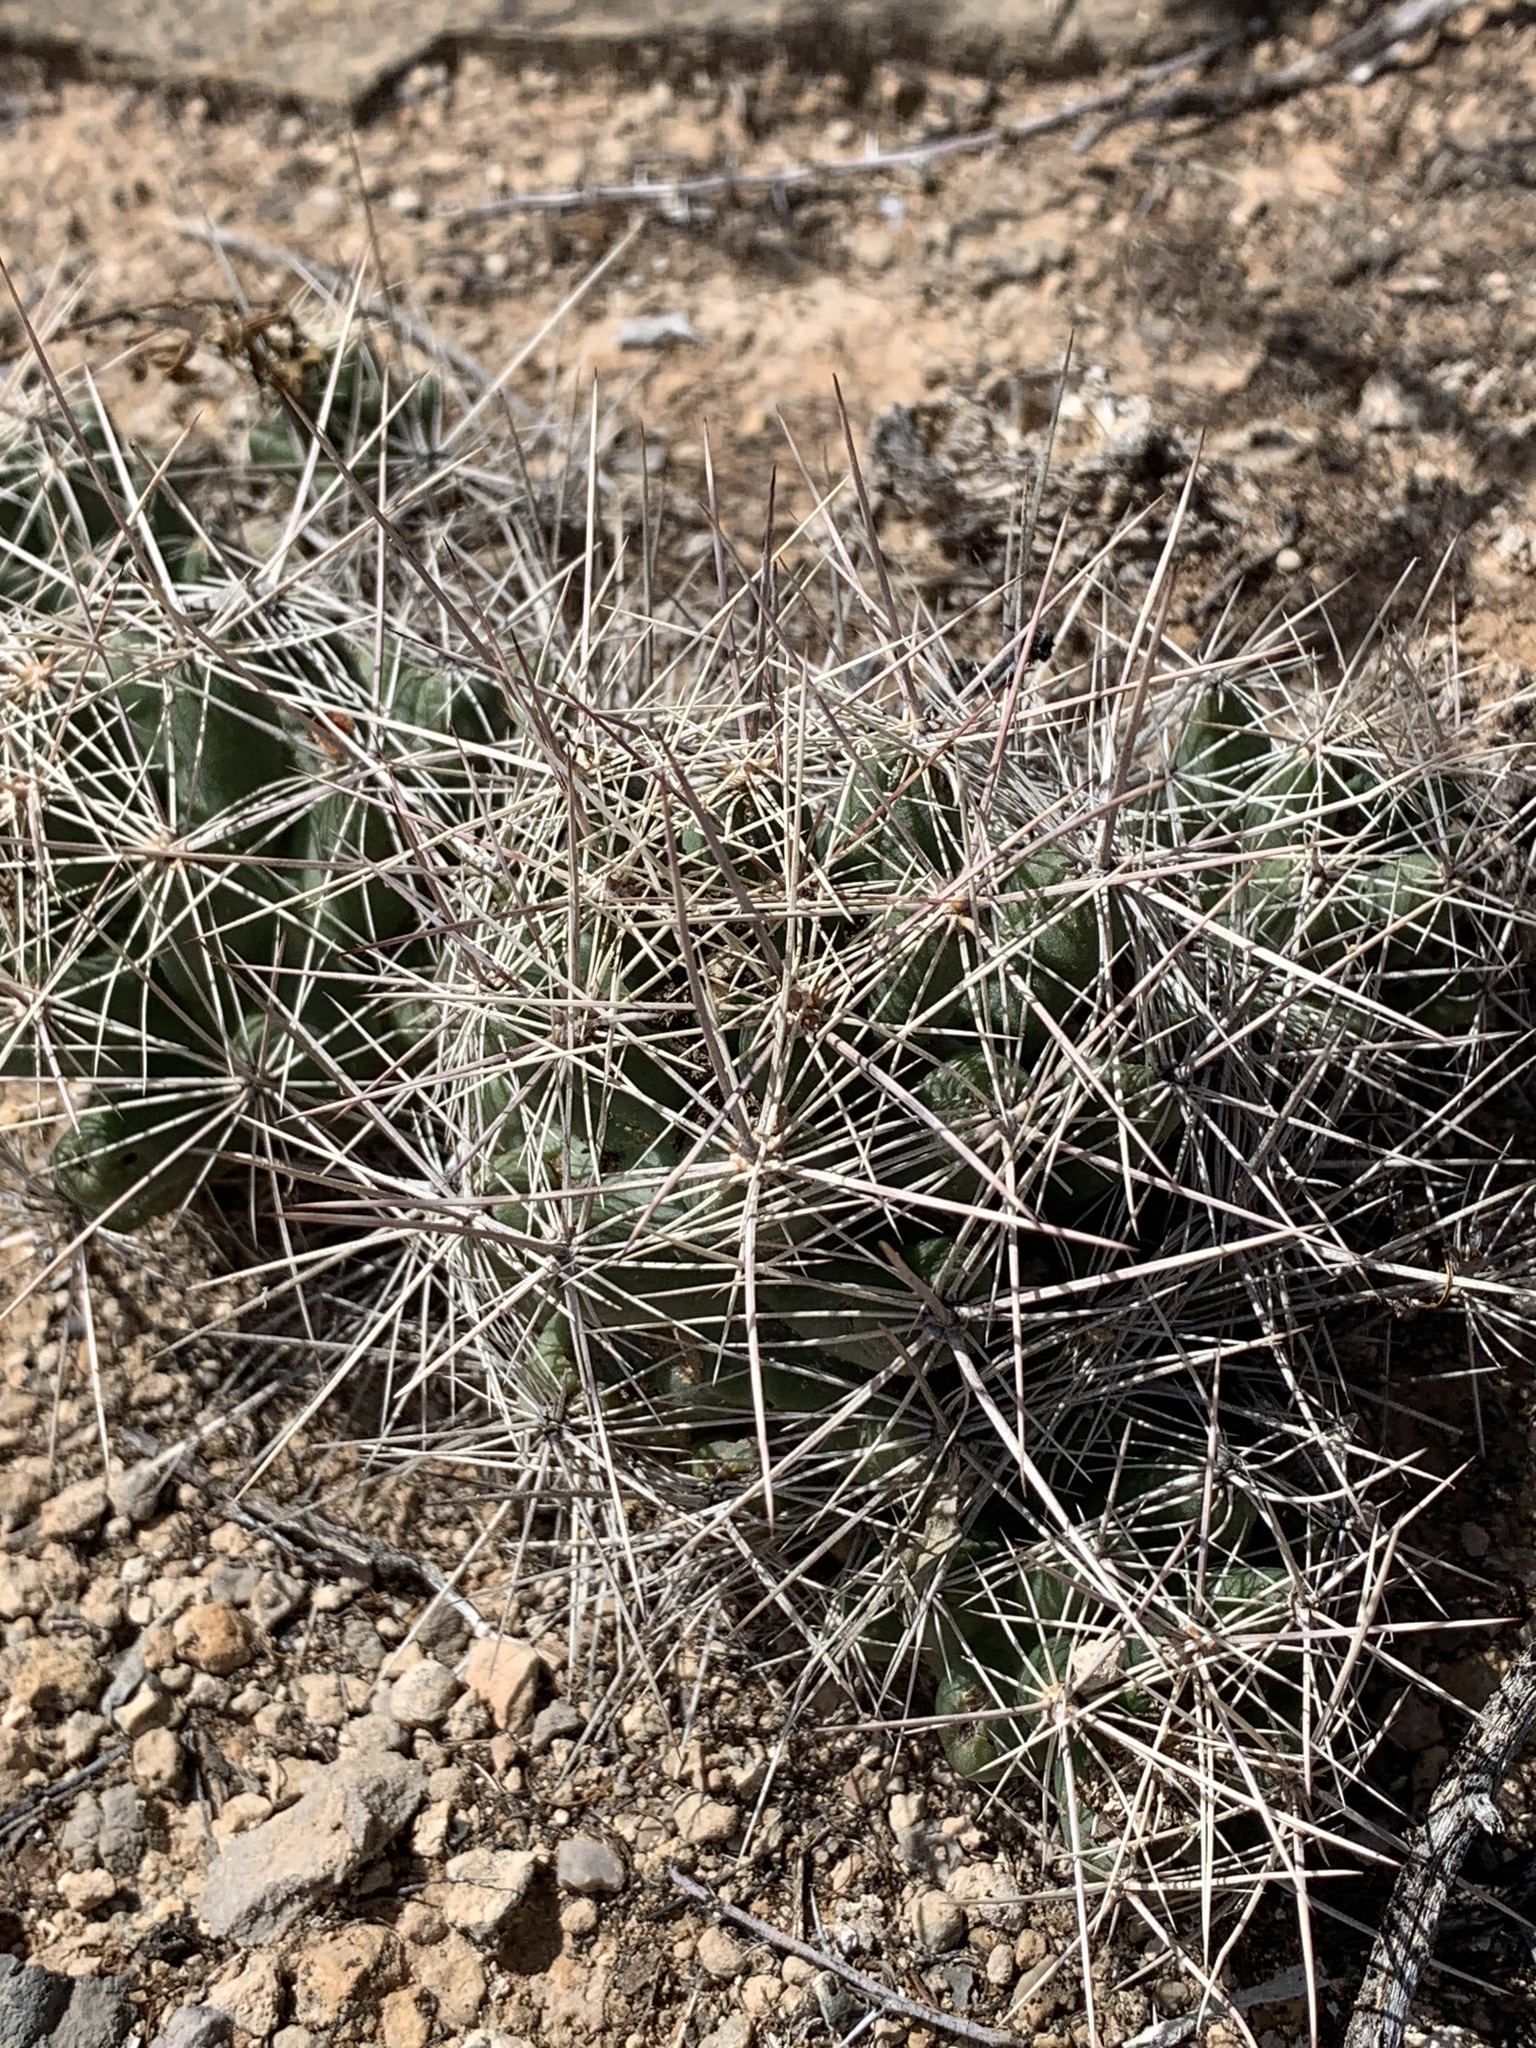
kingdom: Plantae
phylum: Tracheophyta
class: Magnoliopsida
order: Caryophyllales
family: Cactaceae
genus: Coryphantha
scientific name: Coryphantha macromeris
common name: Nipple beehive cactus
